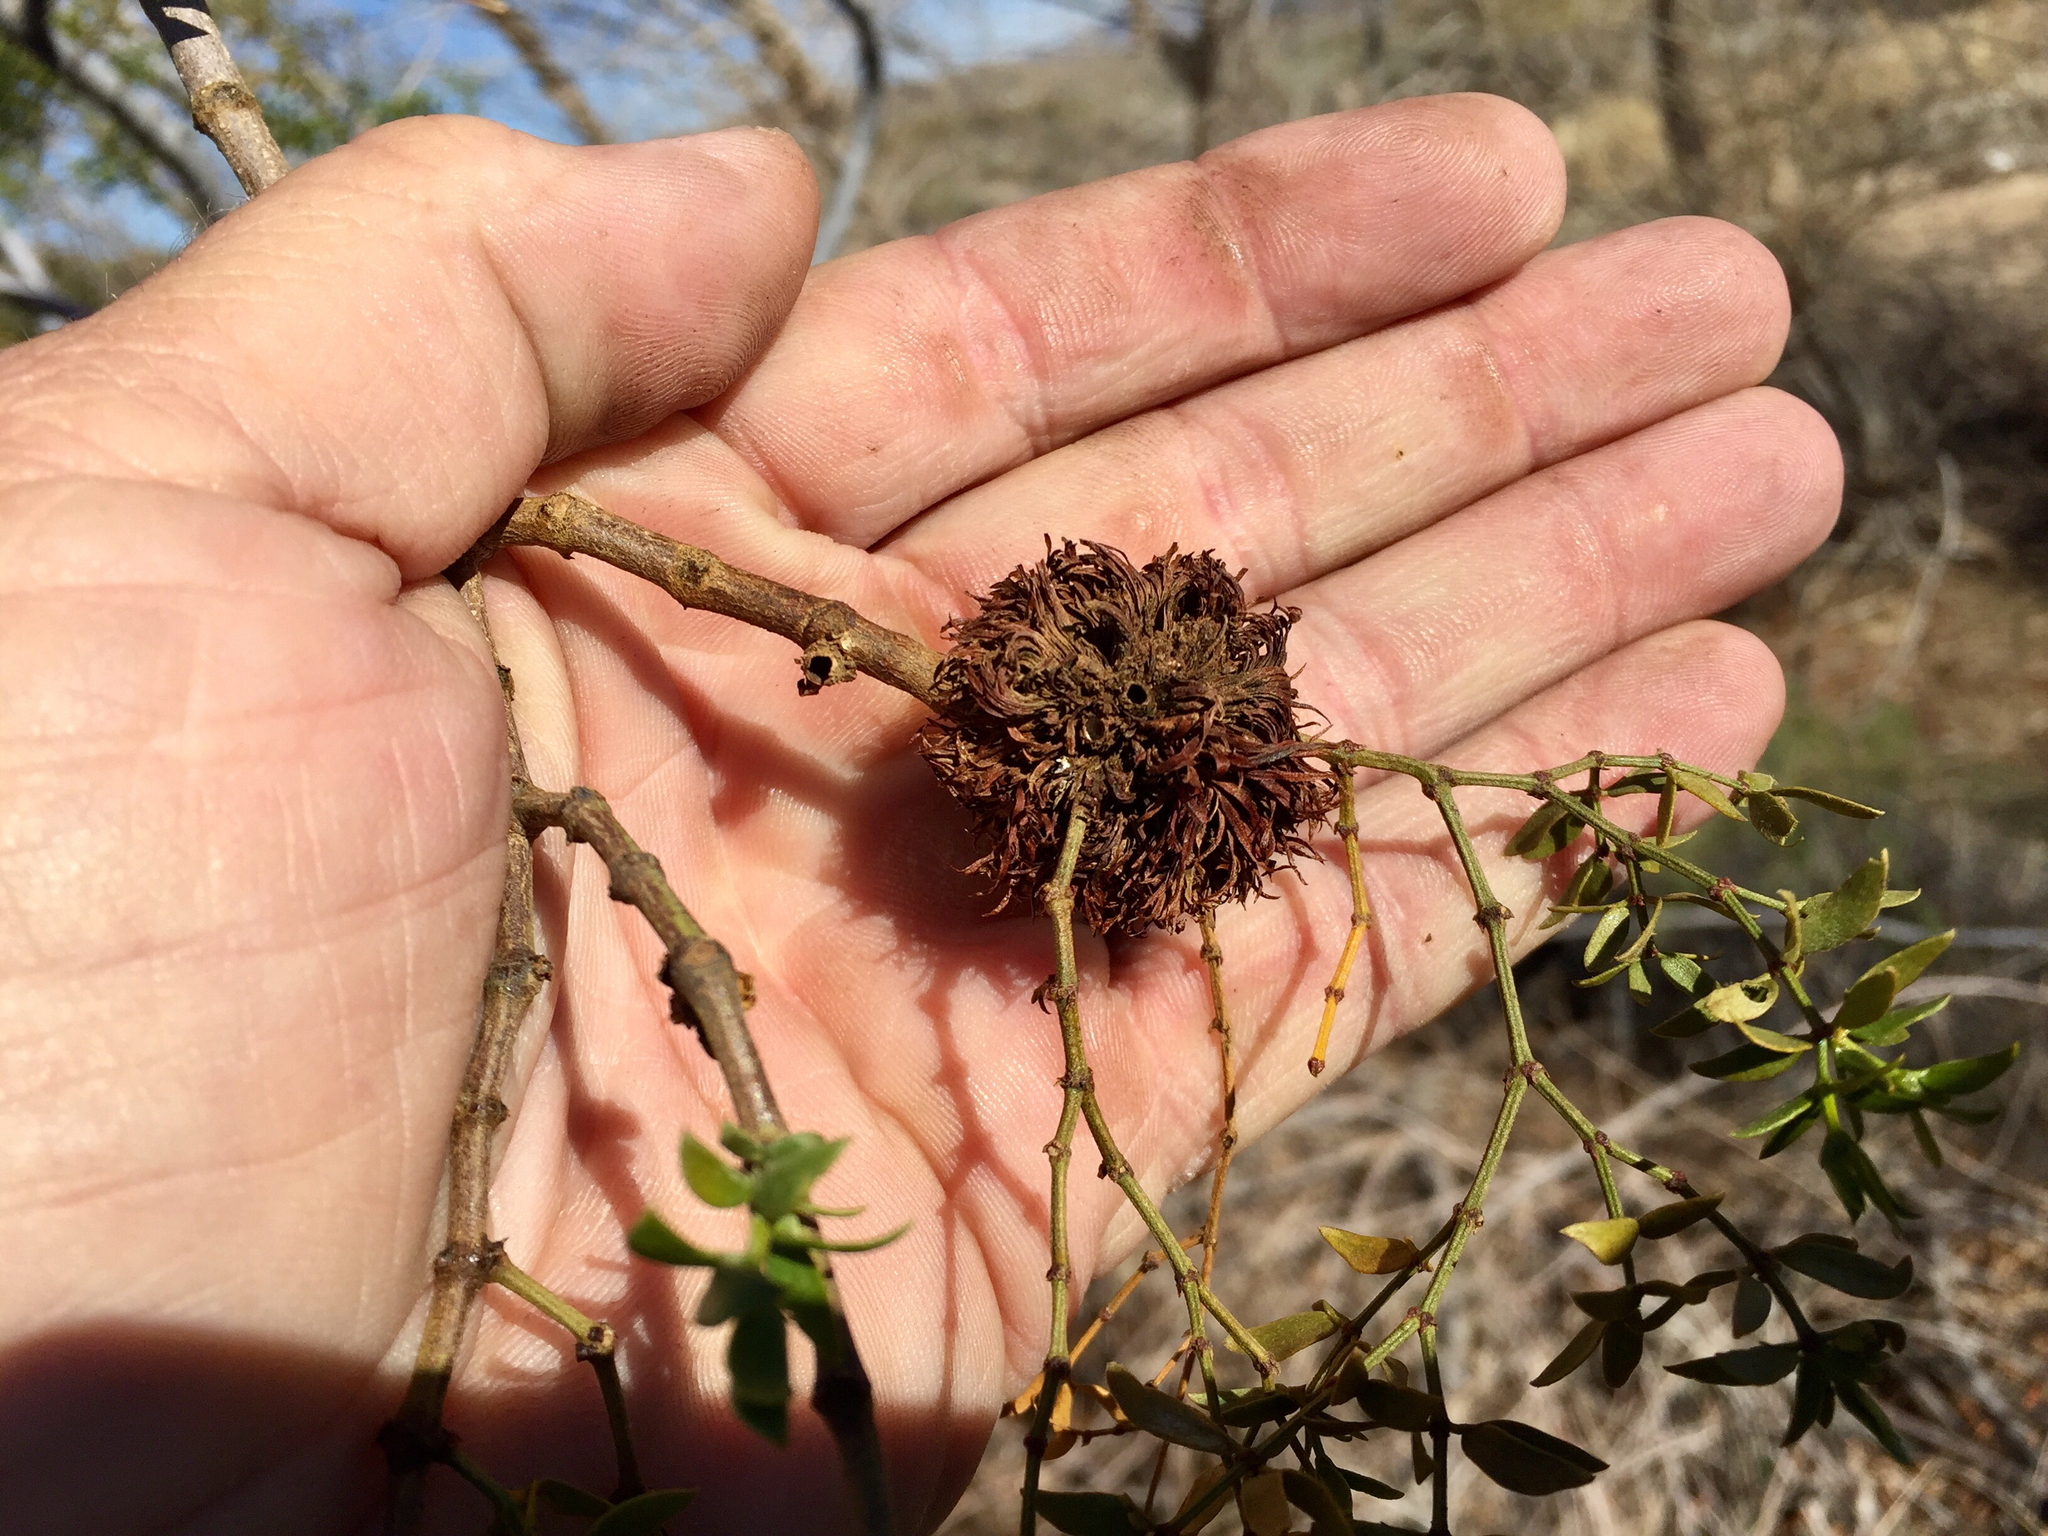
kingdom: Animalia
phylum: Arthropoda
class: Insecta
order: Diptera
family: Cecidomyiidae
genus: Asphondylia
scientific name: Asphondylia auripila
